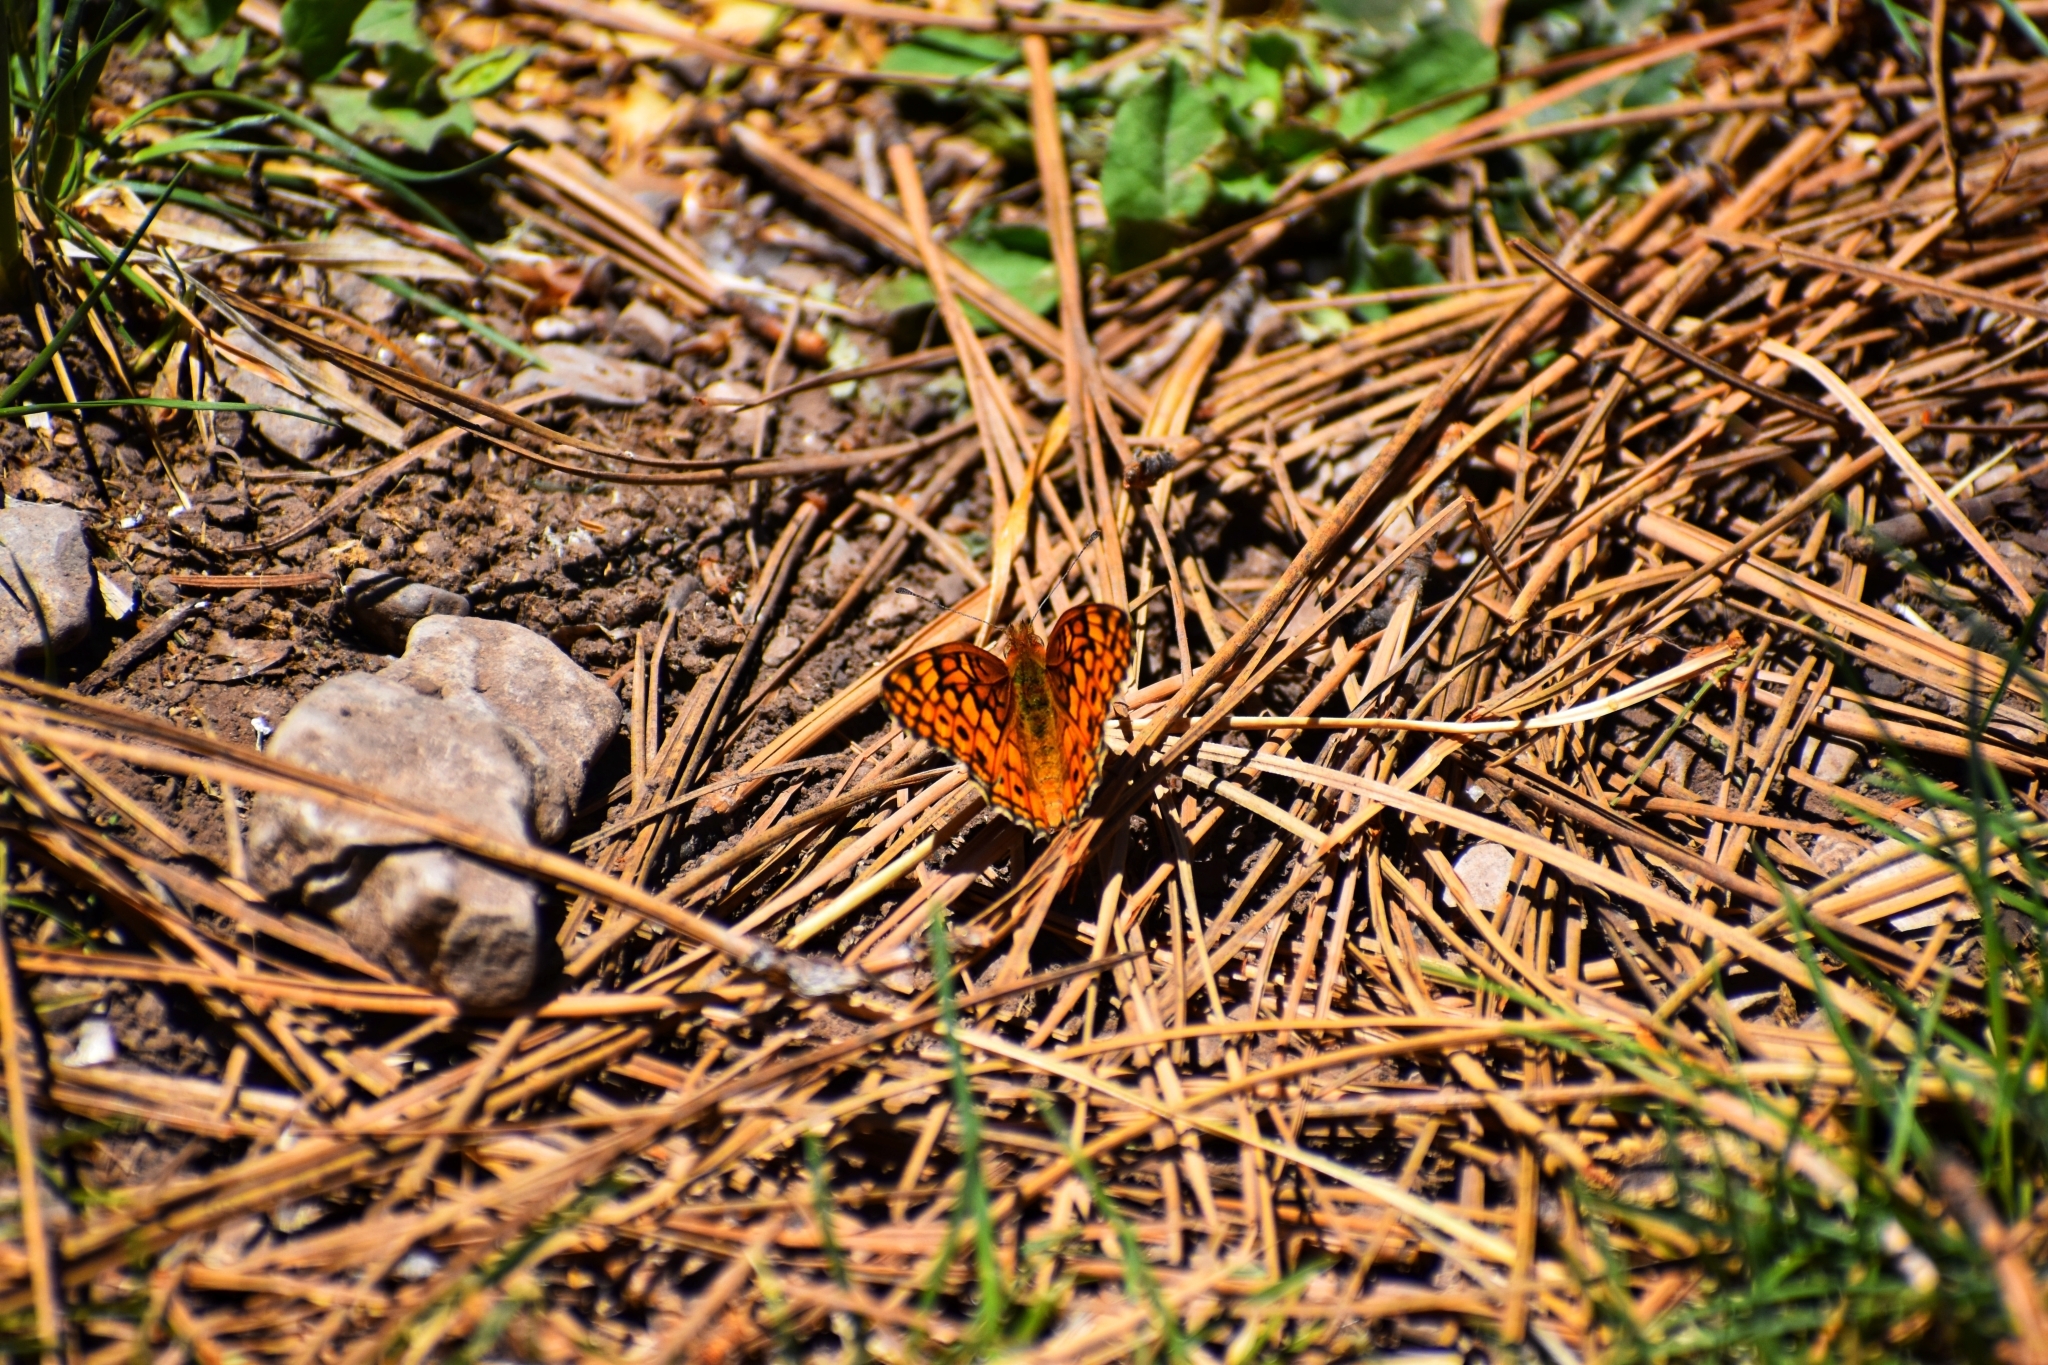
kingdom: Animalia
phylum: Arthropoda
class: Insecta
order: Lepidoptera
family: Nymphalidae
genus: Euptoieta
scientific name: Euptoieta claudia
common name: Variegated fritillary
